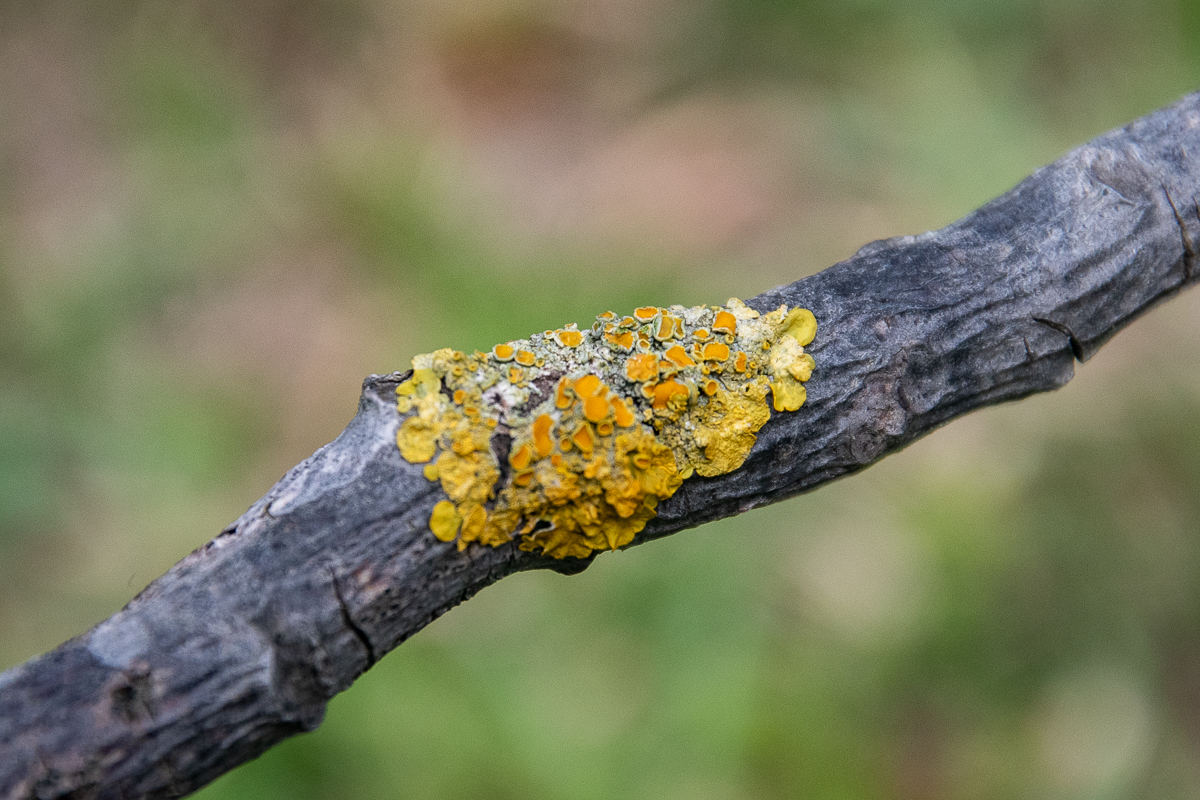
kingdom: Fungi
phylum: Ascomycota
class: Lecanoromycetes
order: Teloschistales
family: Teloschistaceae
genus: Xanthoria
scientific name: Xanthoria parietina
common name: Common orange lichen
